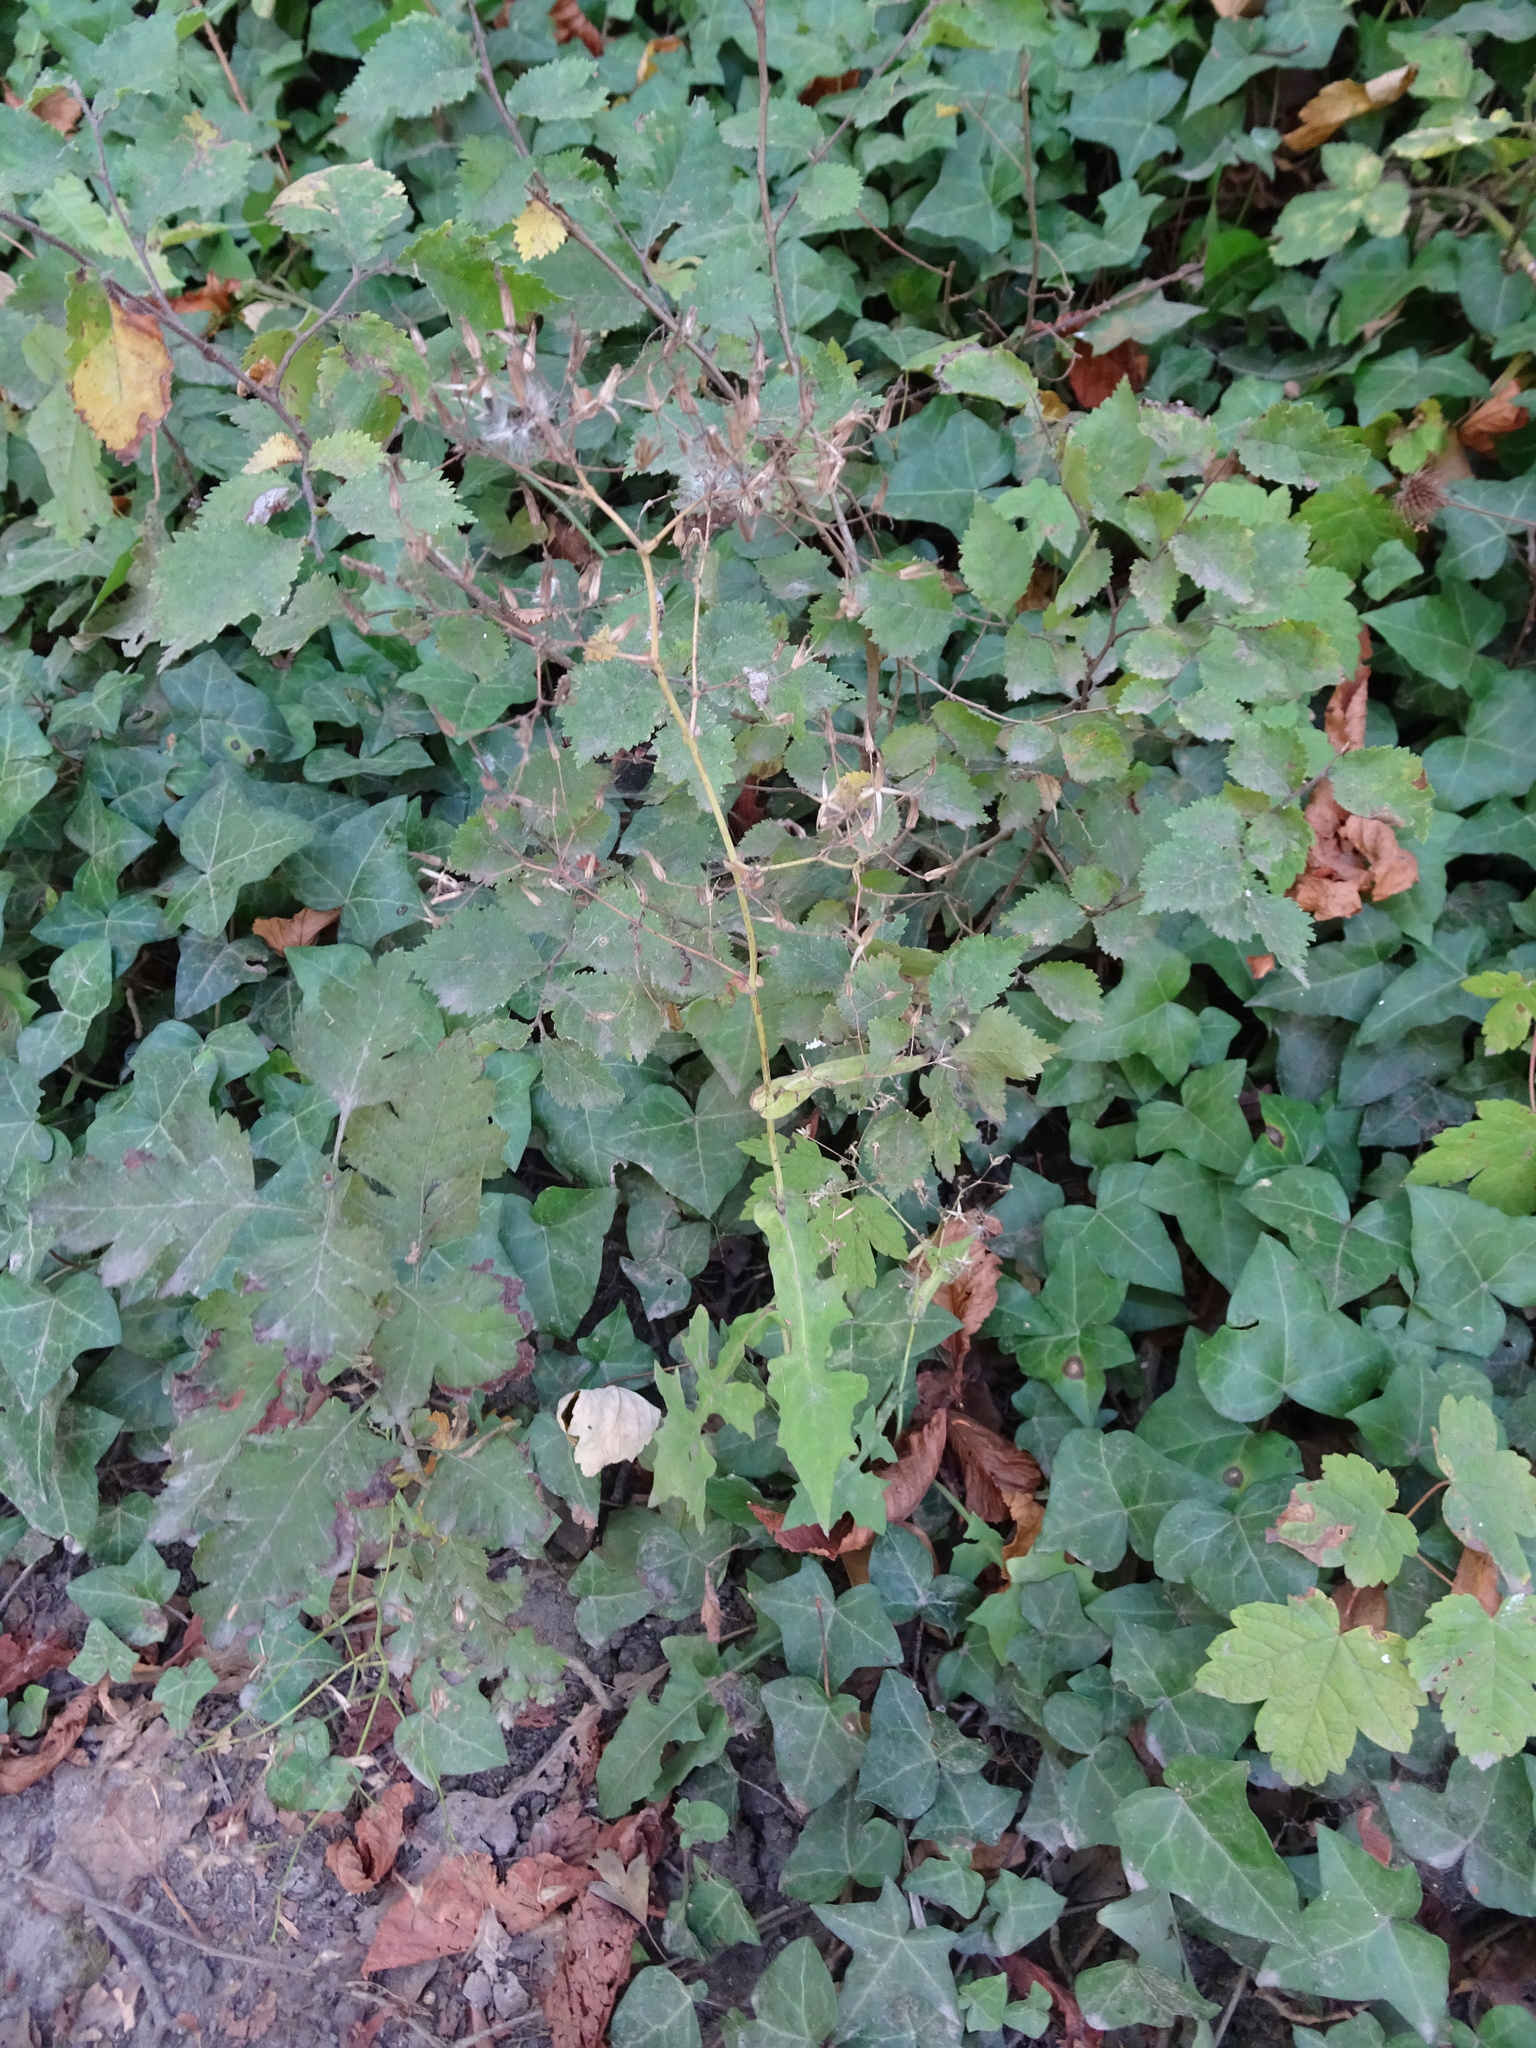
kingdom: Plantae
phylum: Tracheophyta
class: Magnoliopsida
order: Asterales
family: Asteraceae
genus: Mycelis
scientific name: Mycelis muralis
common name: Wall lettuce
